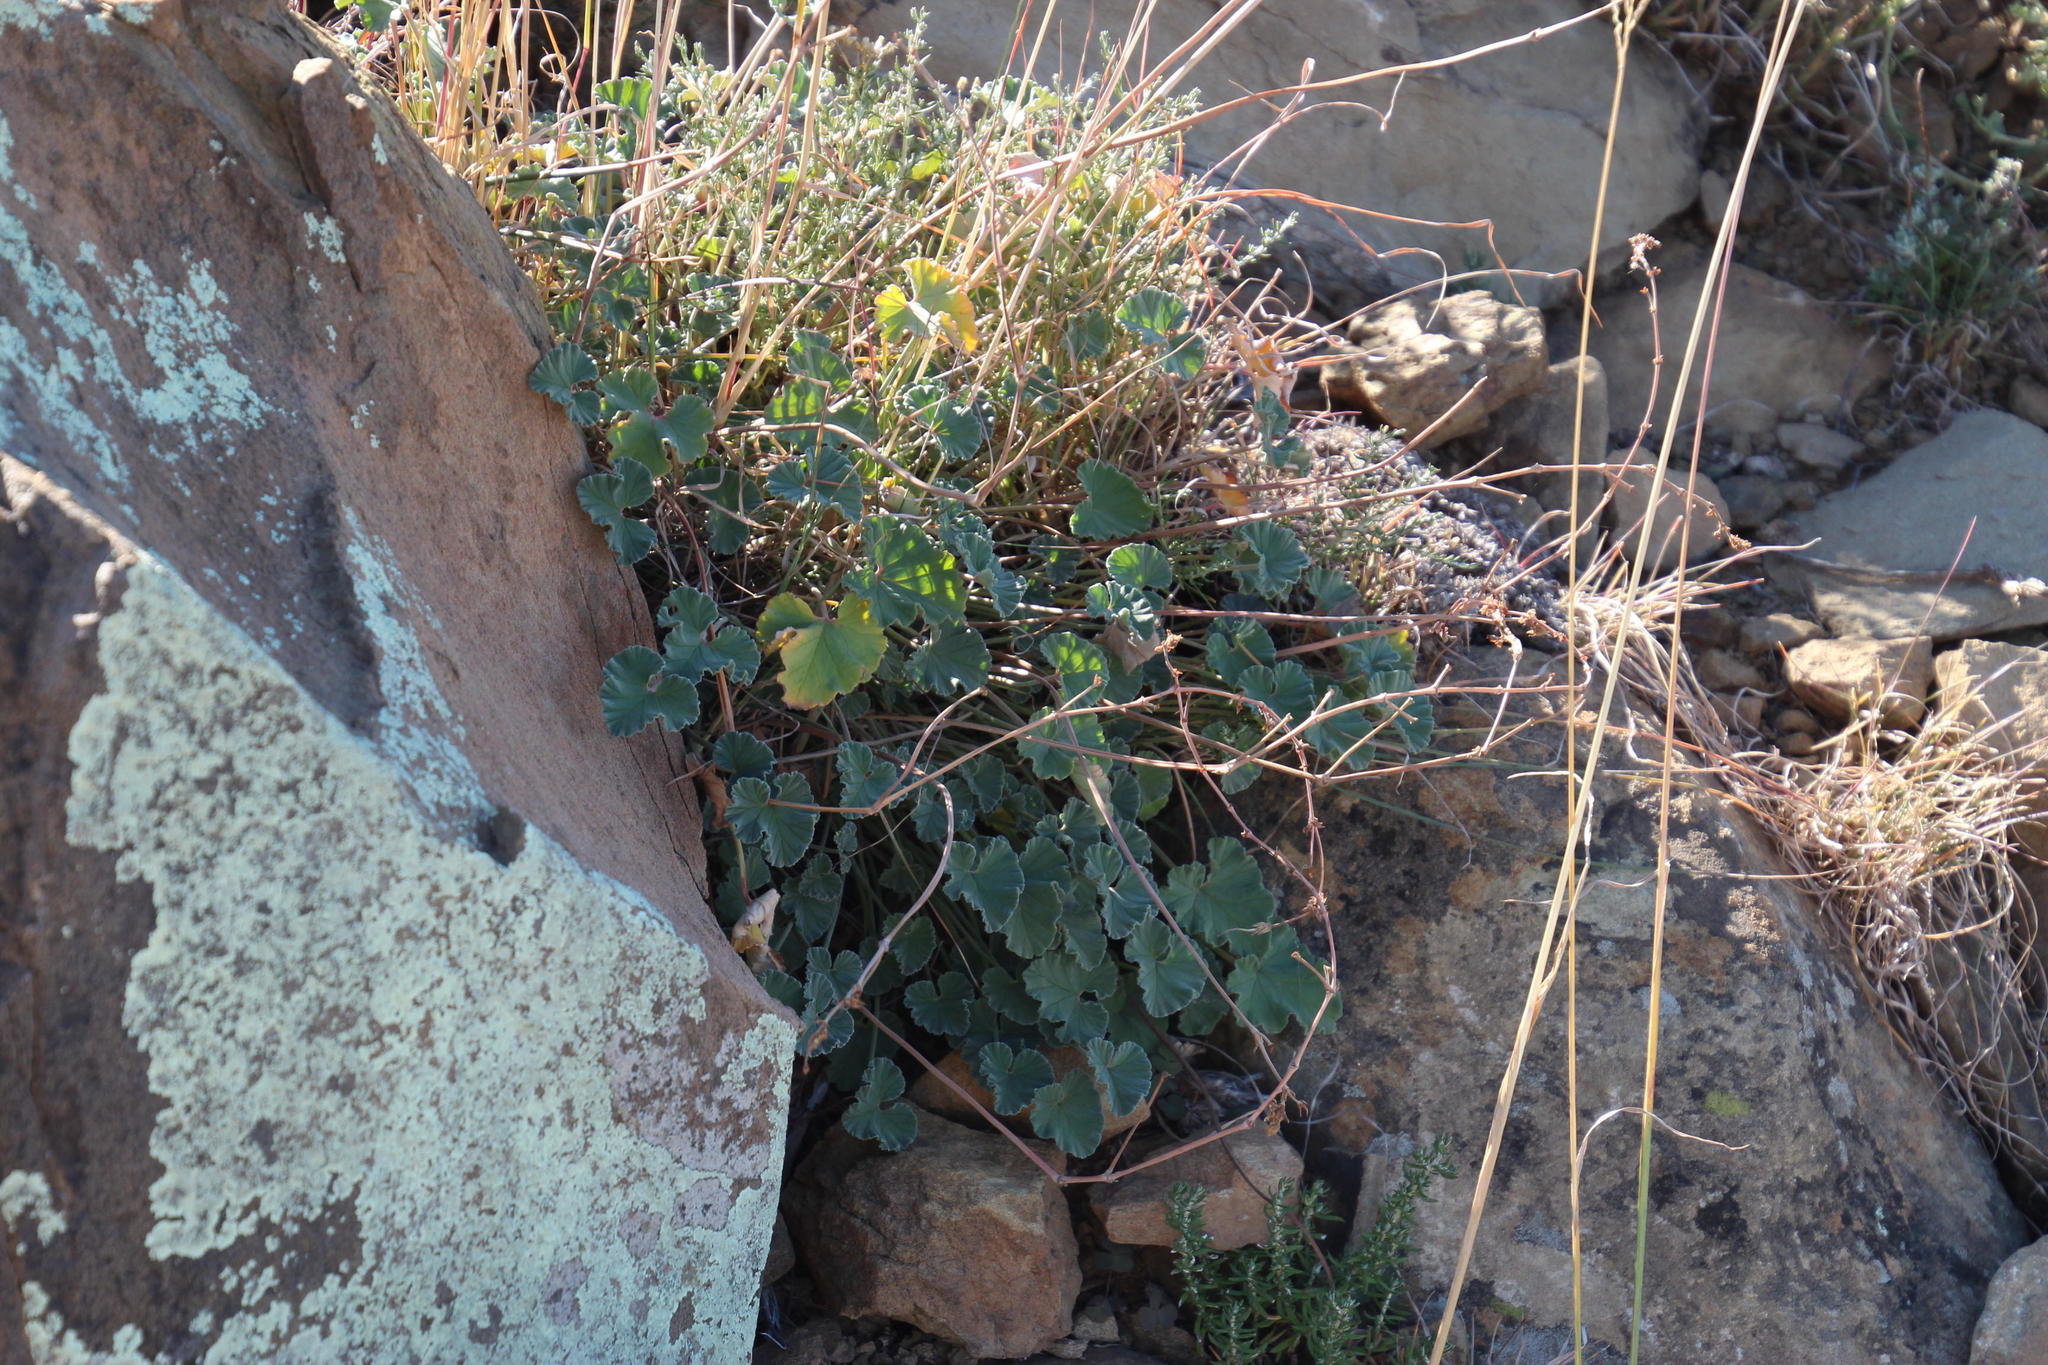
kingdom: Plantae
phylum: Tracheophyta
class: Magnoliopsida
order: Geraniales
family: Geraniaceae
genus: Pelargonium
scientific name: Pelargonium sidoides
